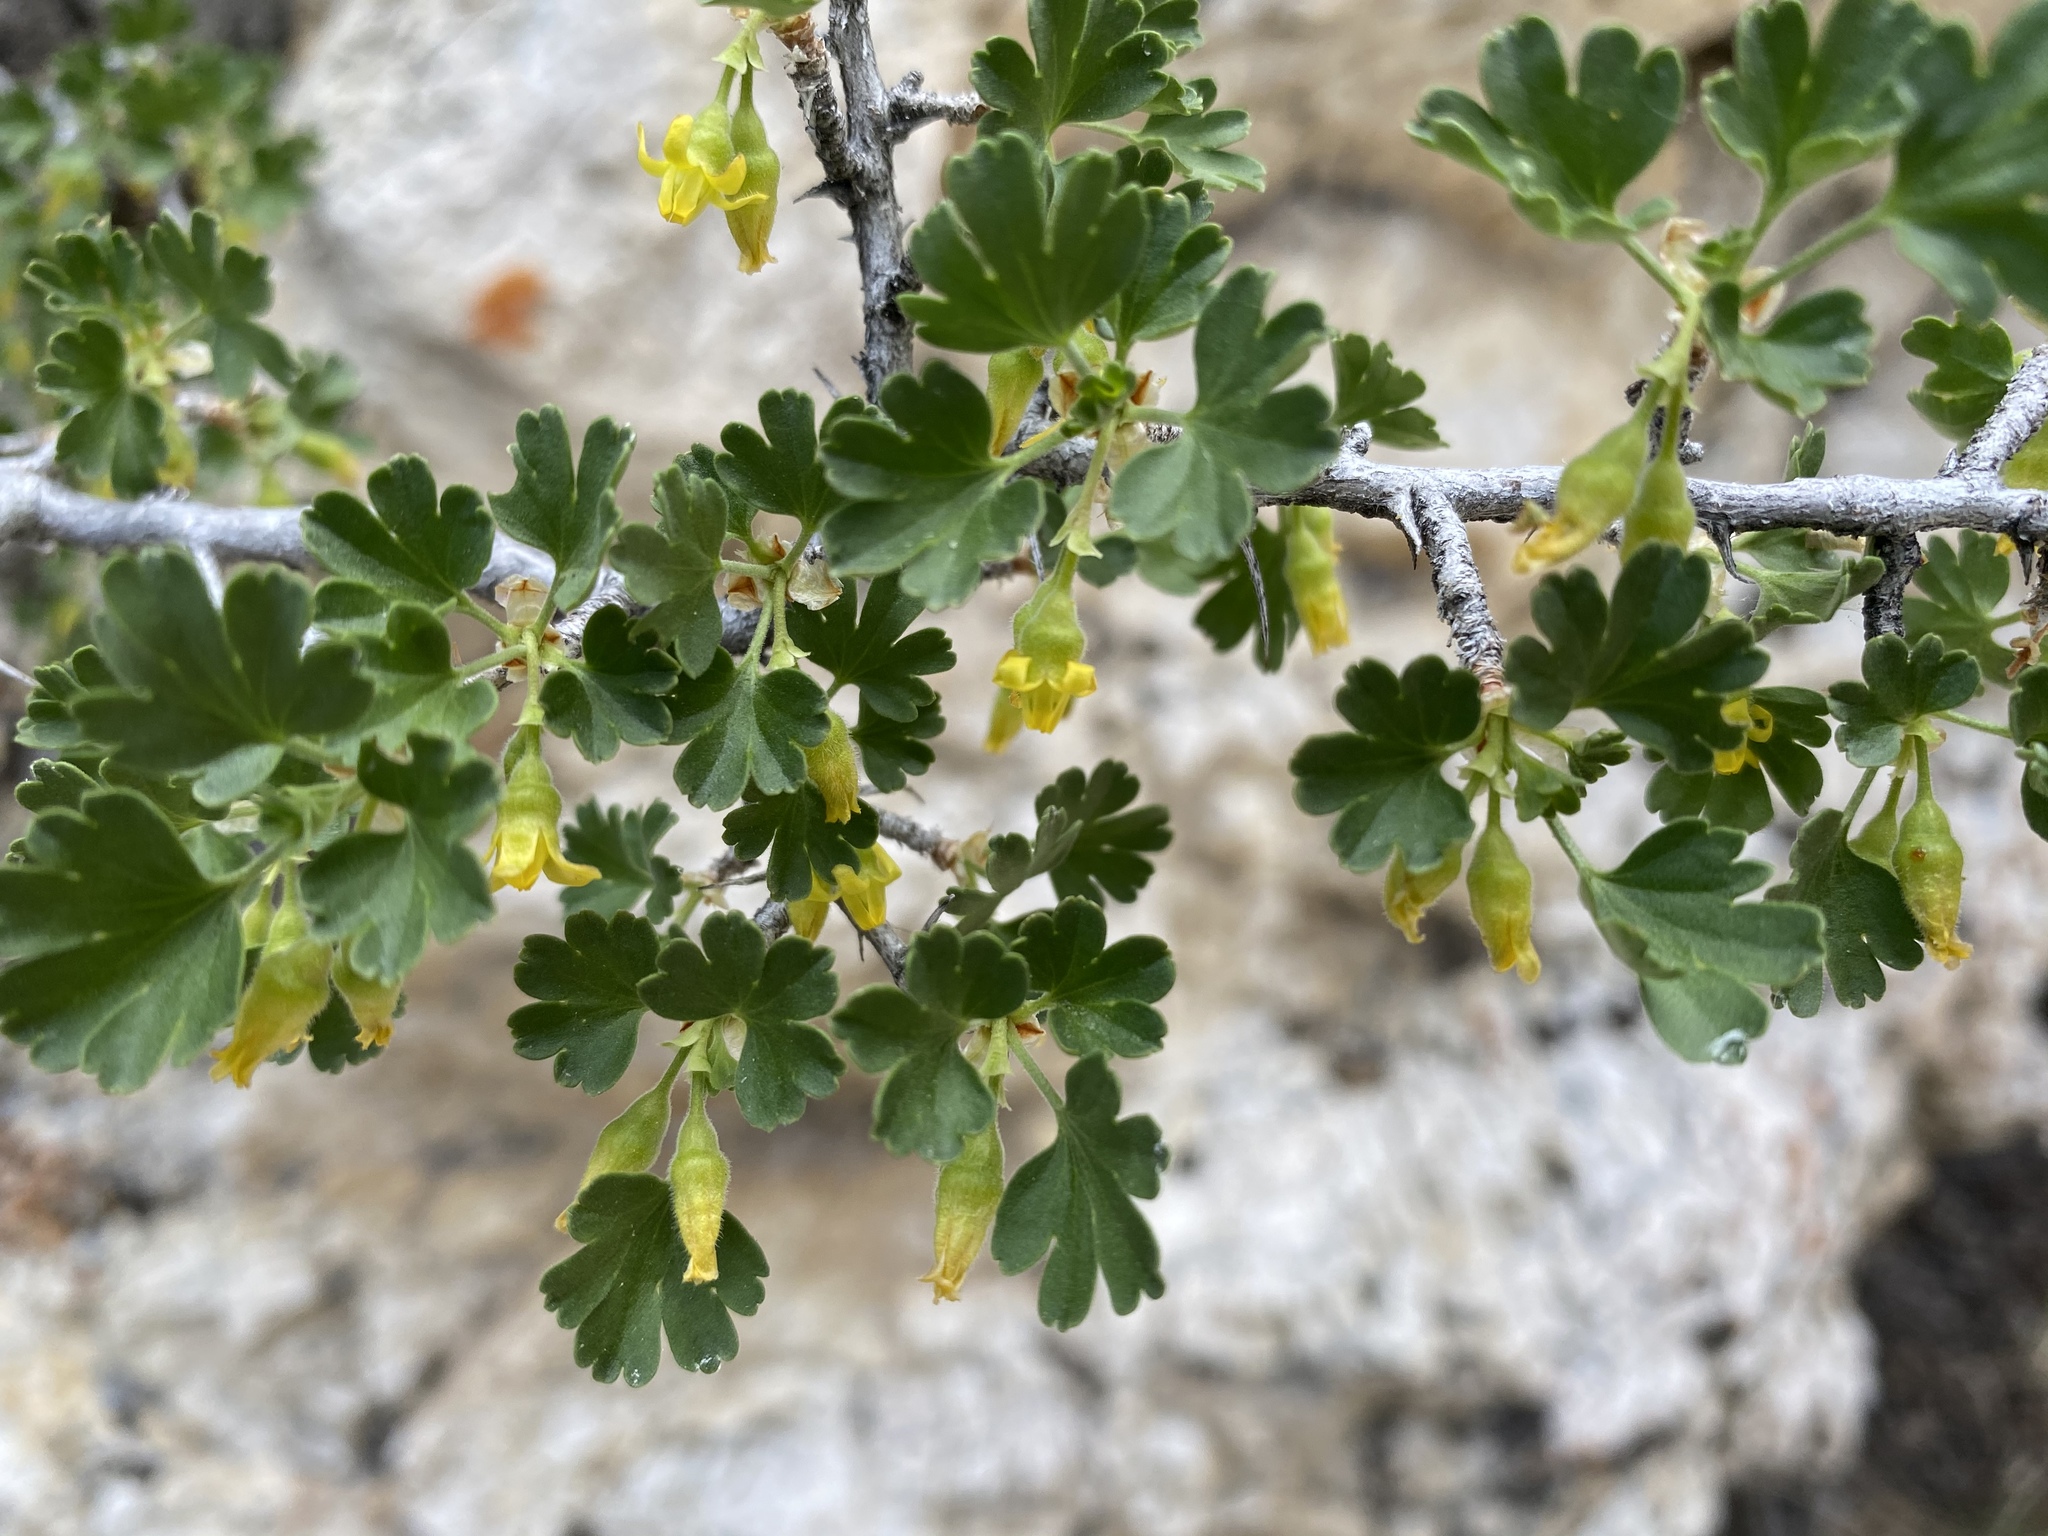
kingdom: Plantae
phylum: Tracheophyta
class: Magnoliopsida
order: Saxifragales
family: Grossulariaceae
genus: Ribes
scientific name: Ribes velutinum
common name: Desert gooseberry
